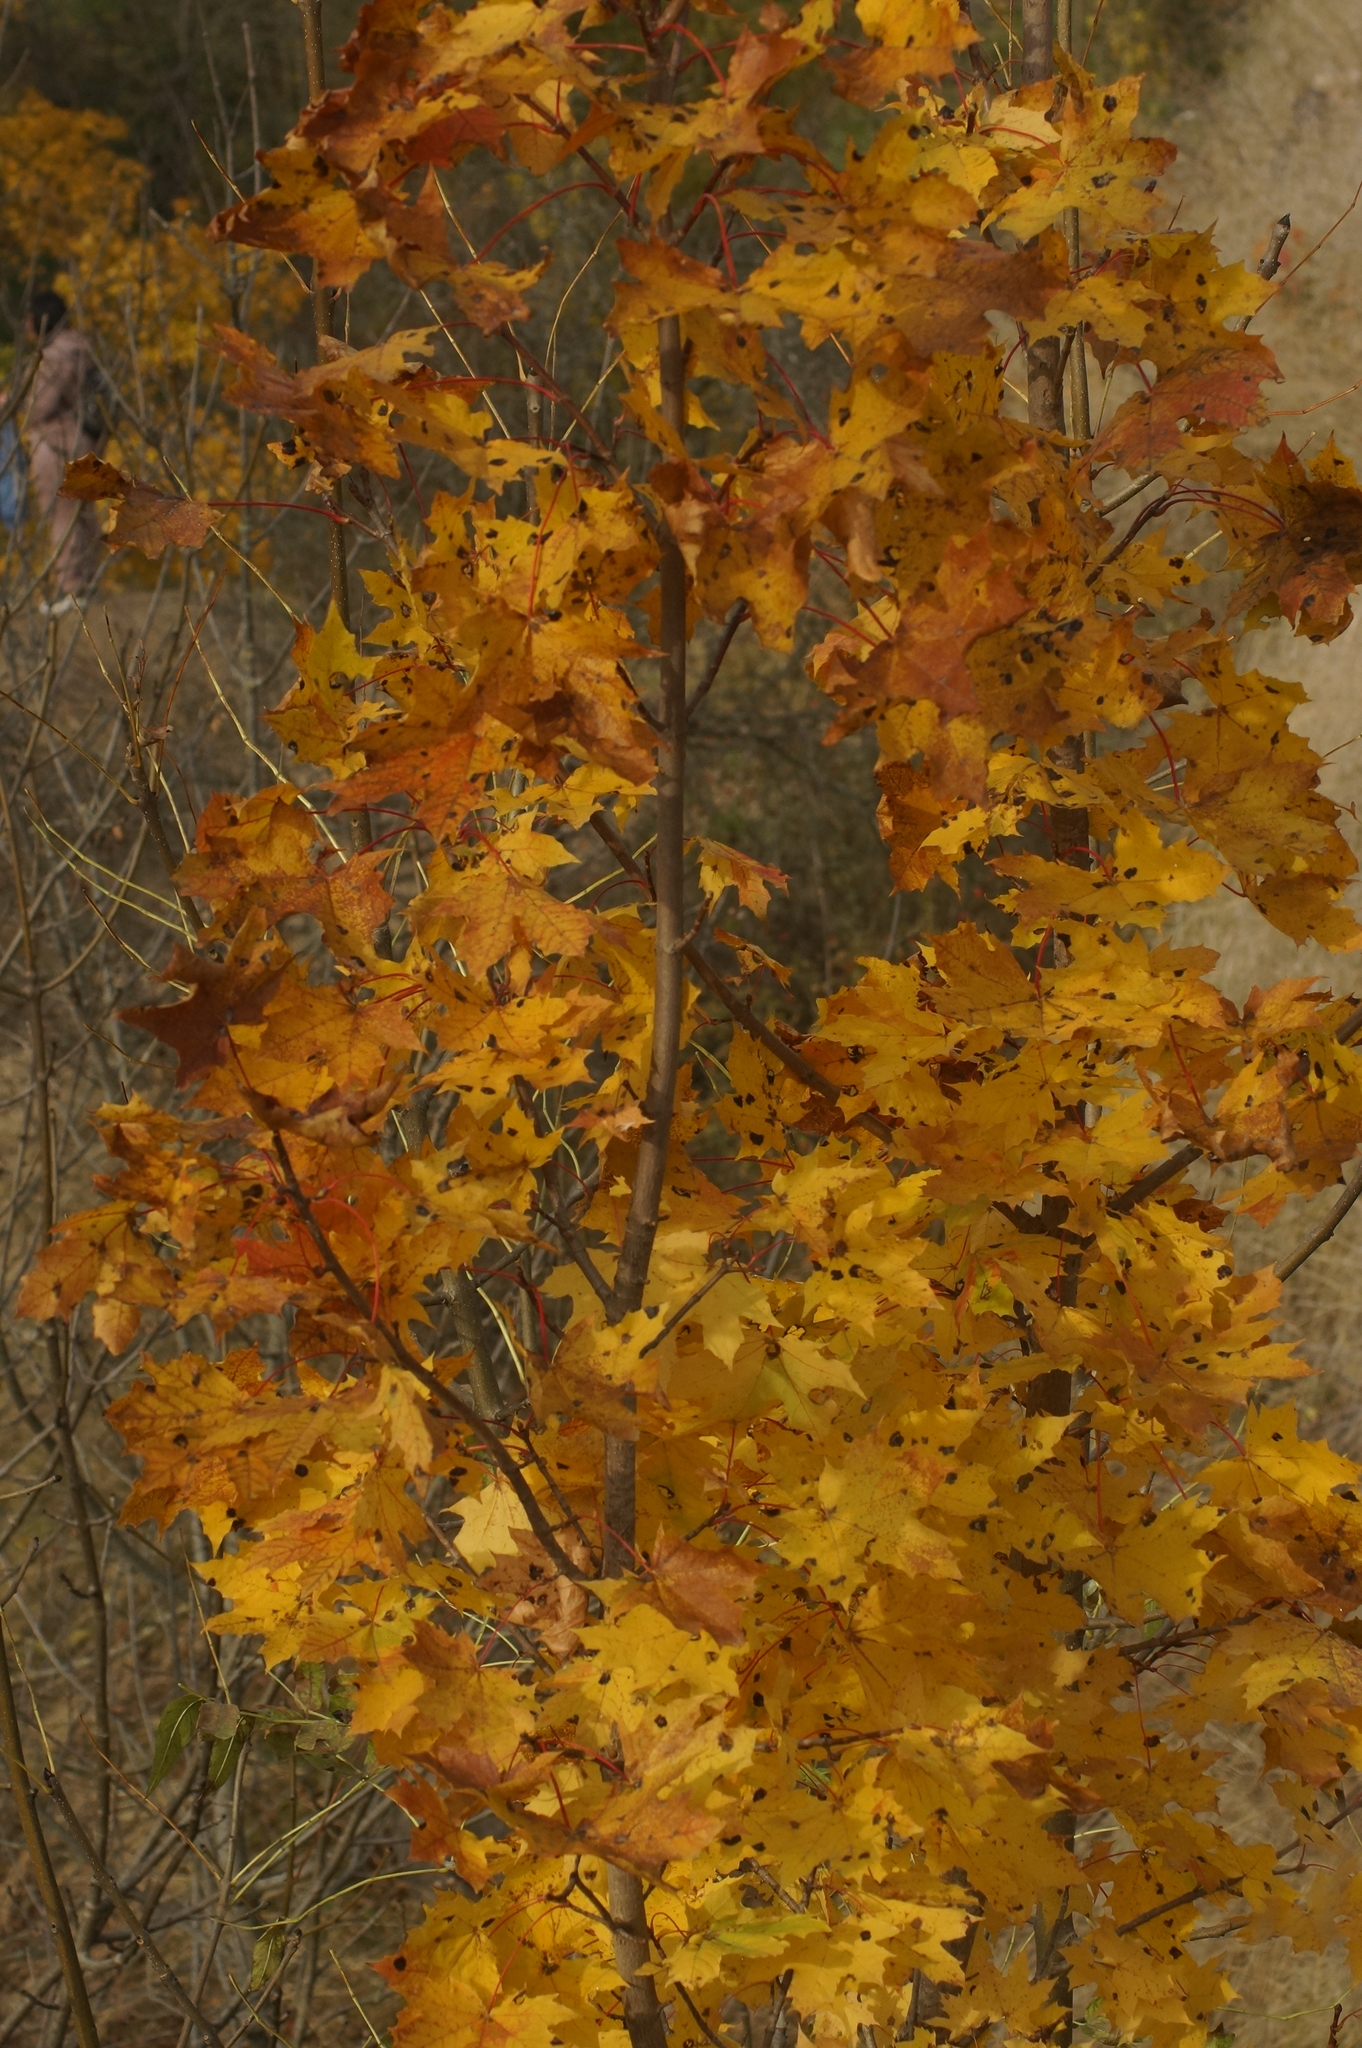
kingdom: Plantae
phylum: Tracheophyta
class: Magnoliopsida
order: Sapindales
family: Sapindaceae
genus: Acer
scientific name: Acer platanoides
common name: Norway maple
